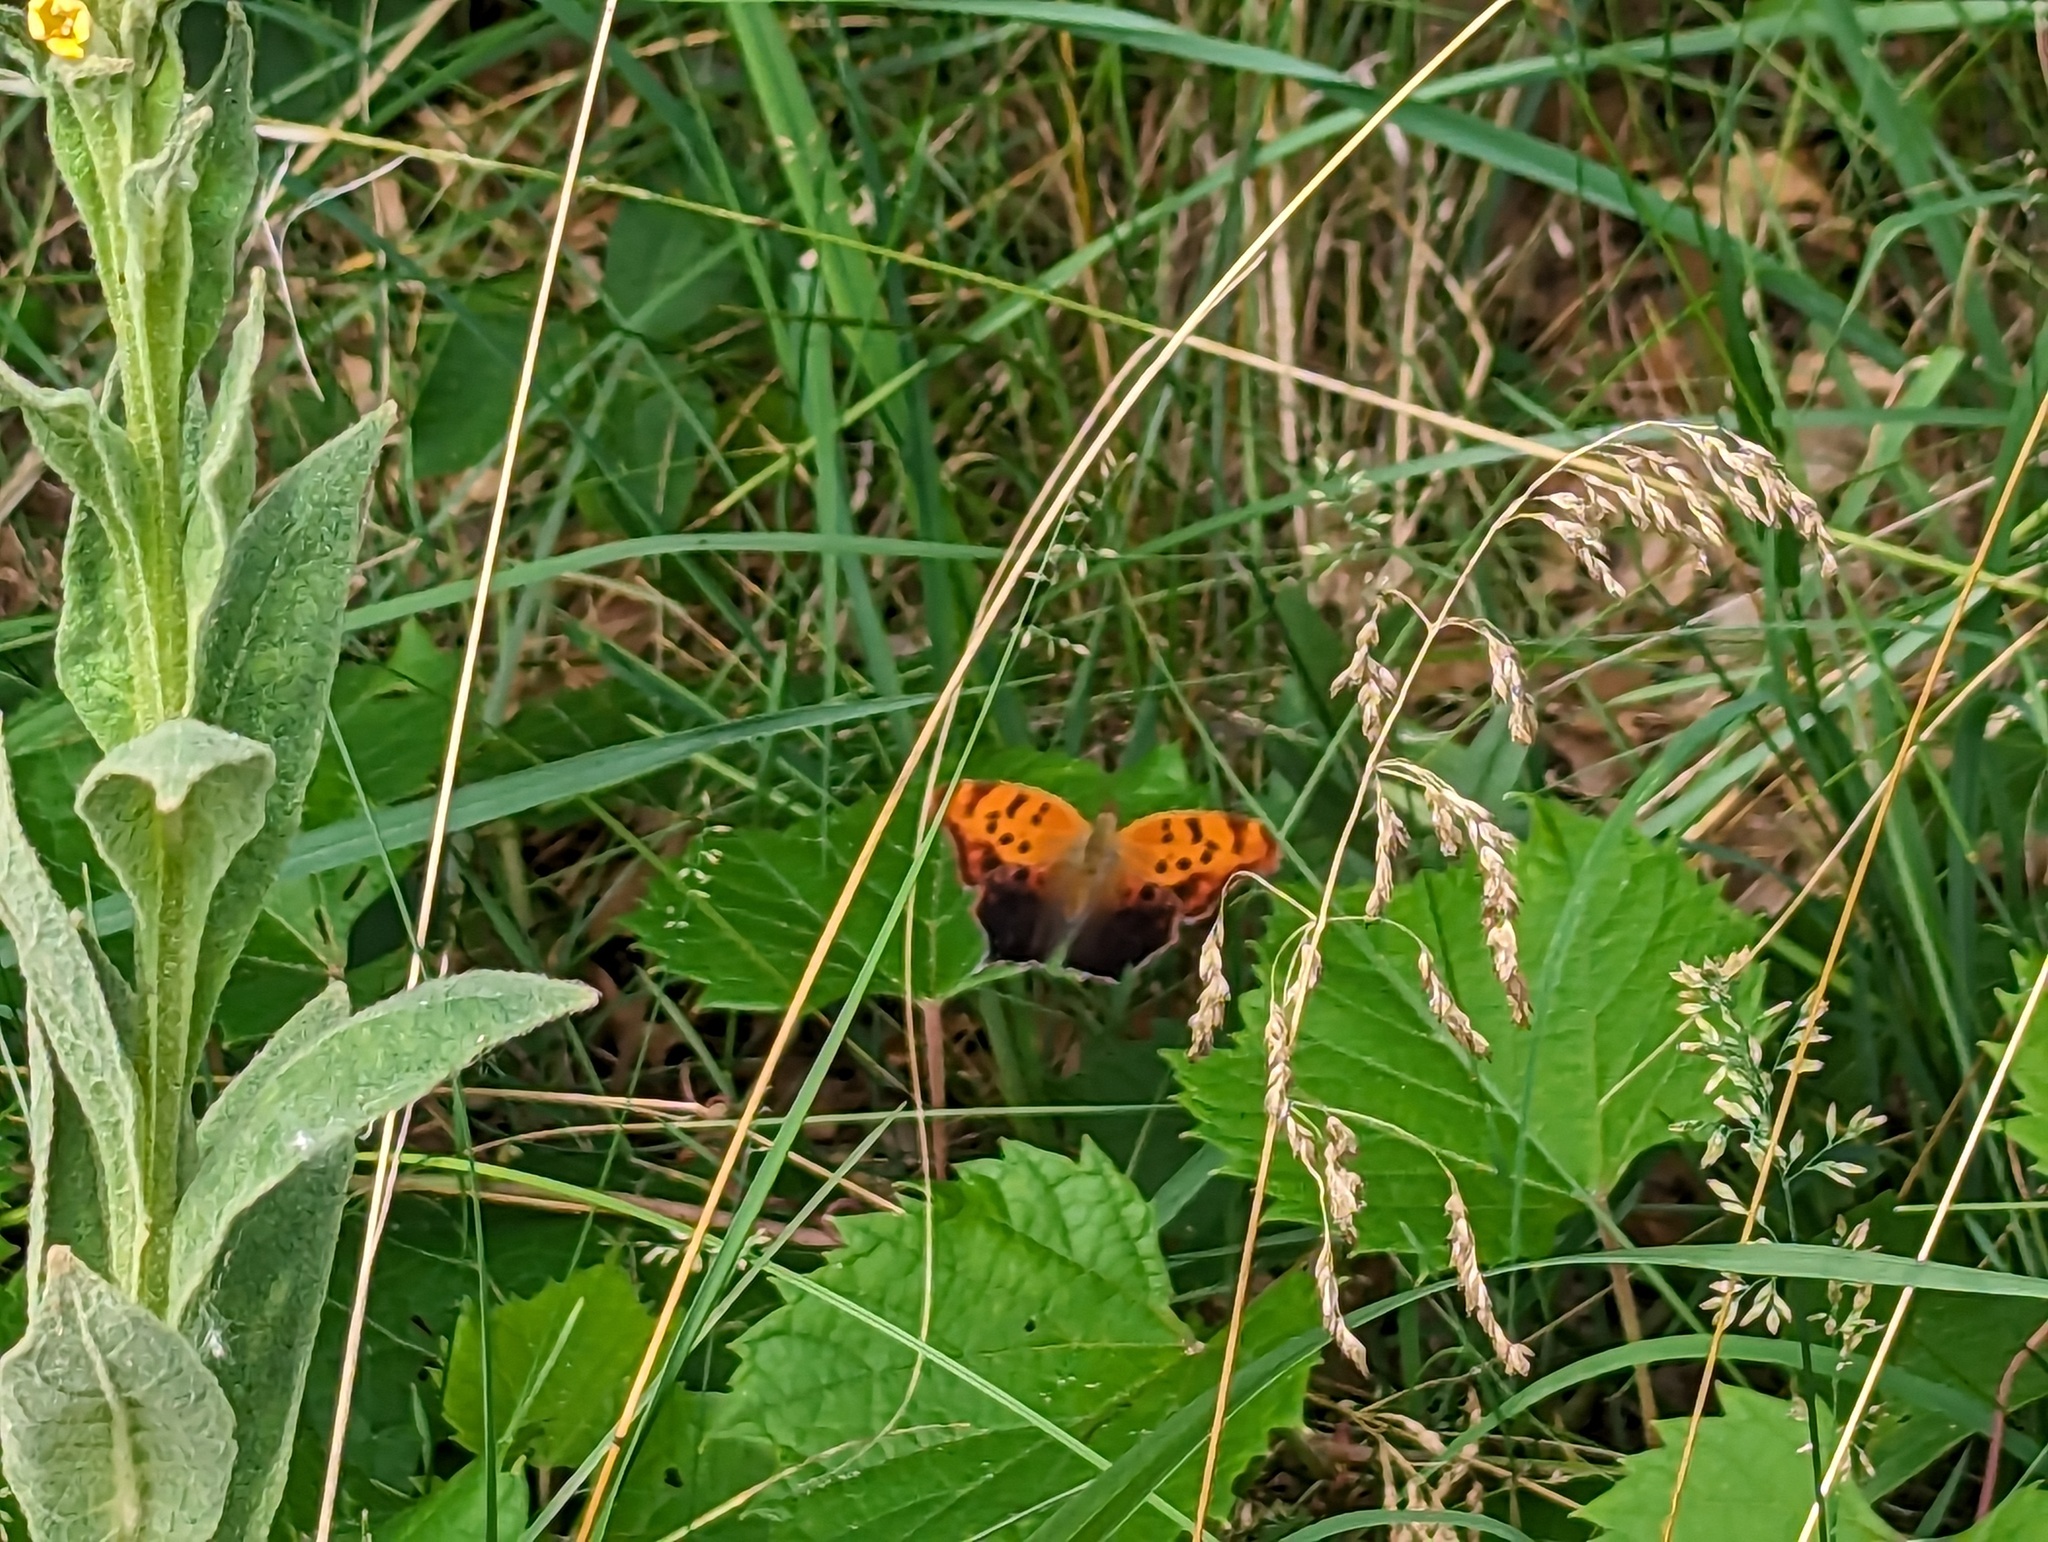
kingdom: Animalia
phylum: Arthropoda
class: Insecta
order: Lepidoptera
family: Nymphalidae
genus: Polygonia
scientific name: Polygonia interrogationis
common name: Question mark
